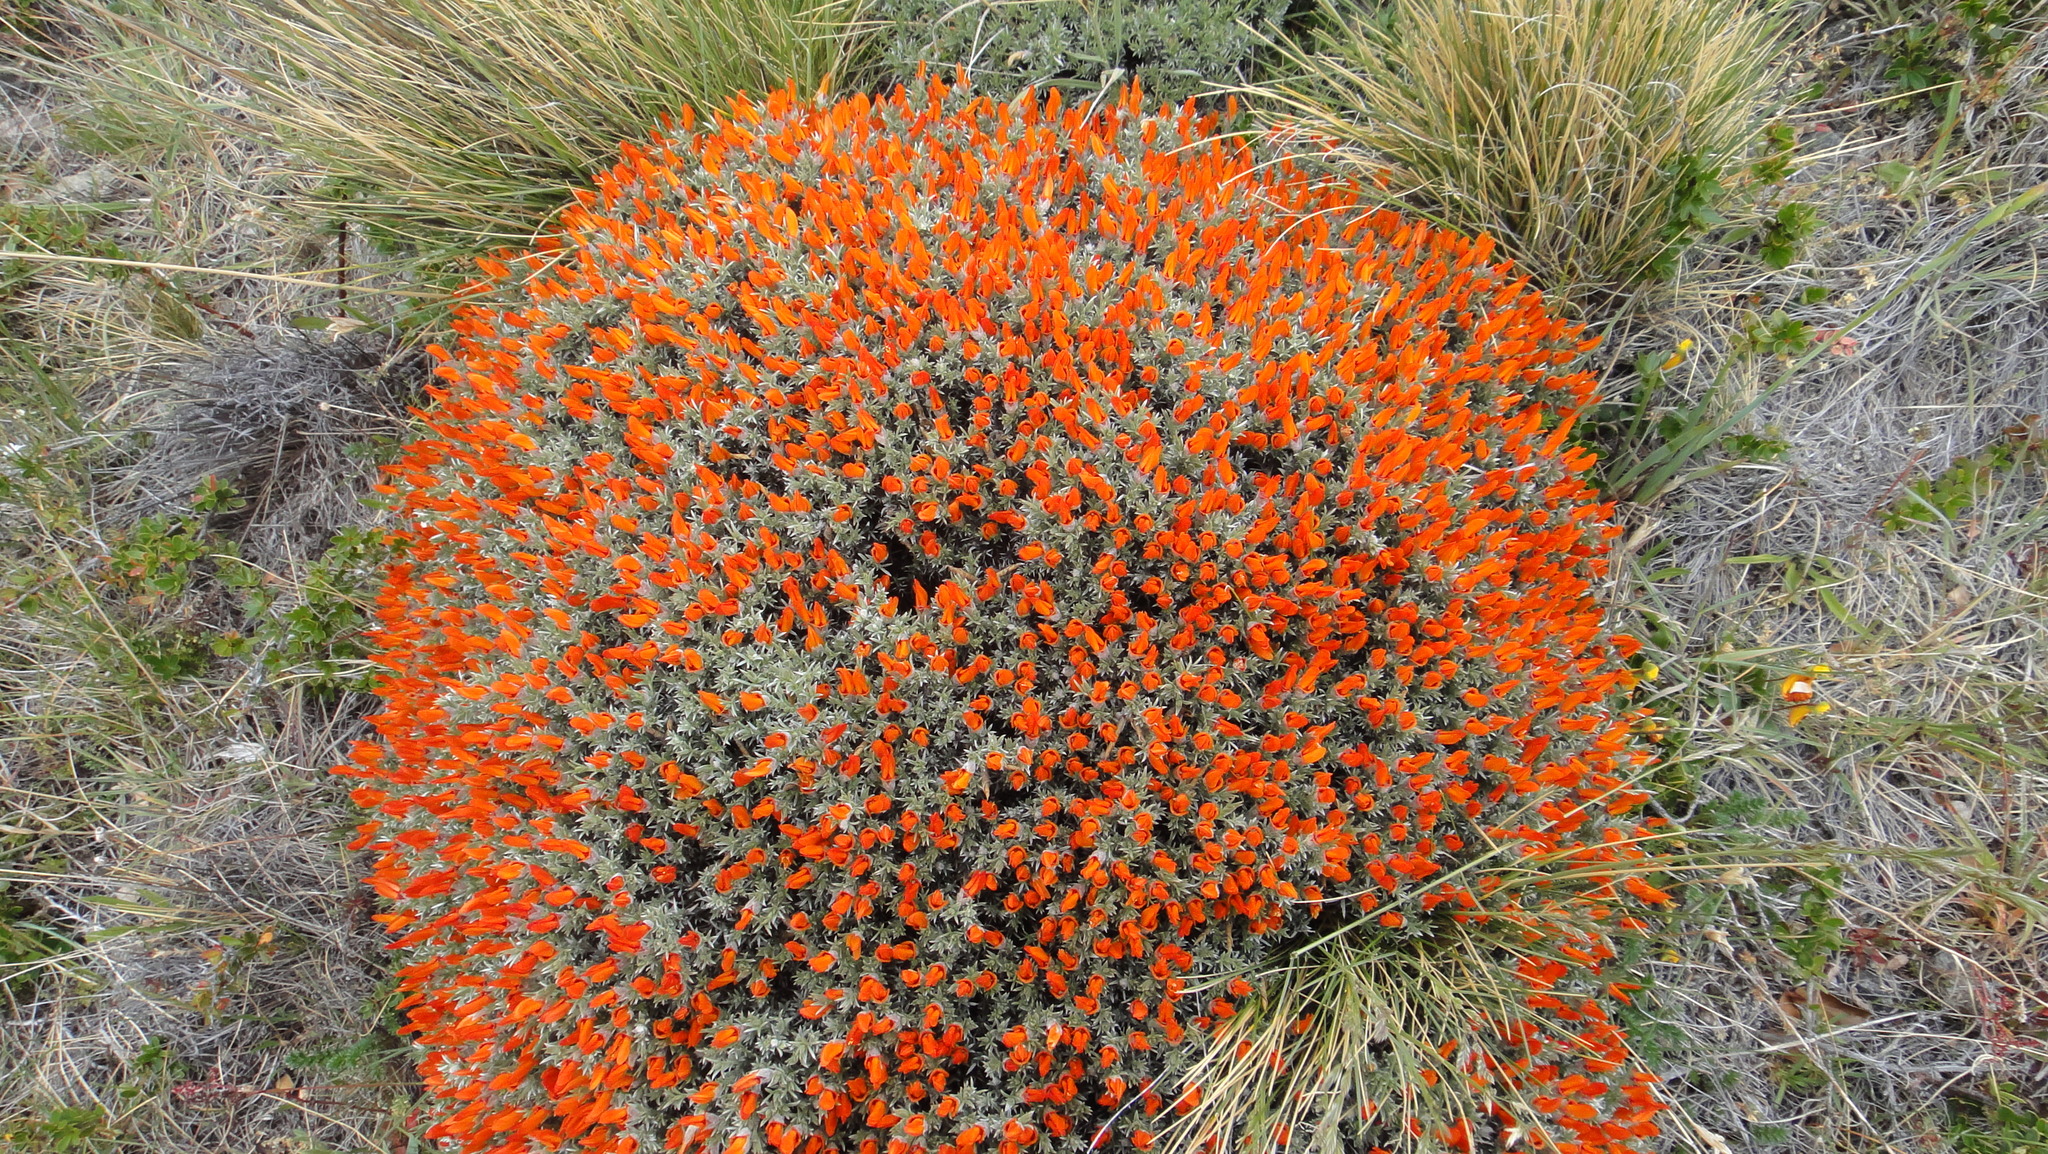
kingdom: Plantae
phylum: Tracheophyta
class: Magnoliopsida
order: Fabales
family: Fabaceae
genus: Anarthrophyllum
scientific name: Anarthrophyllum desideratum
